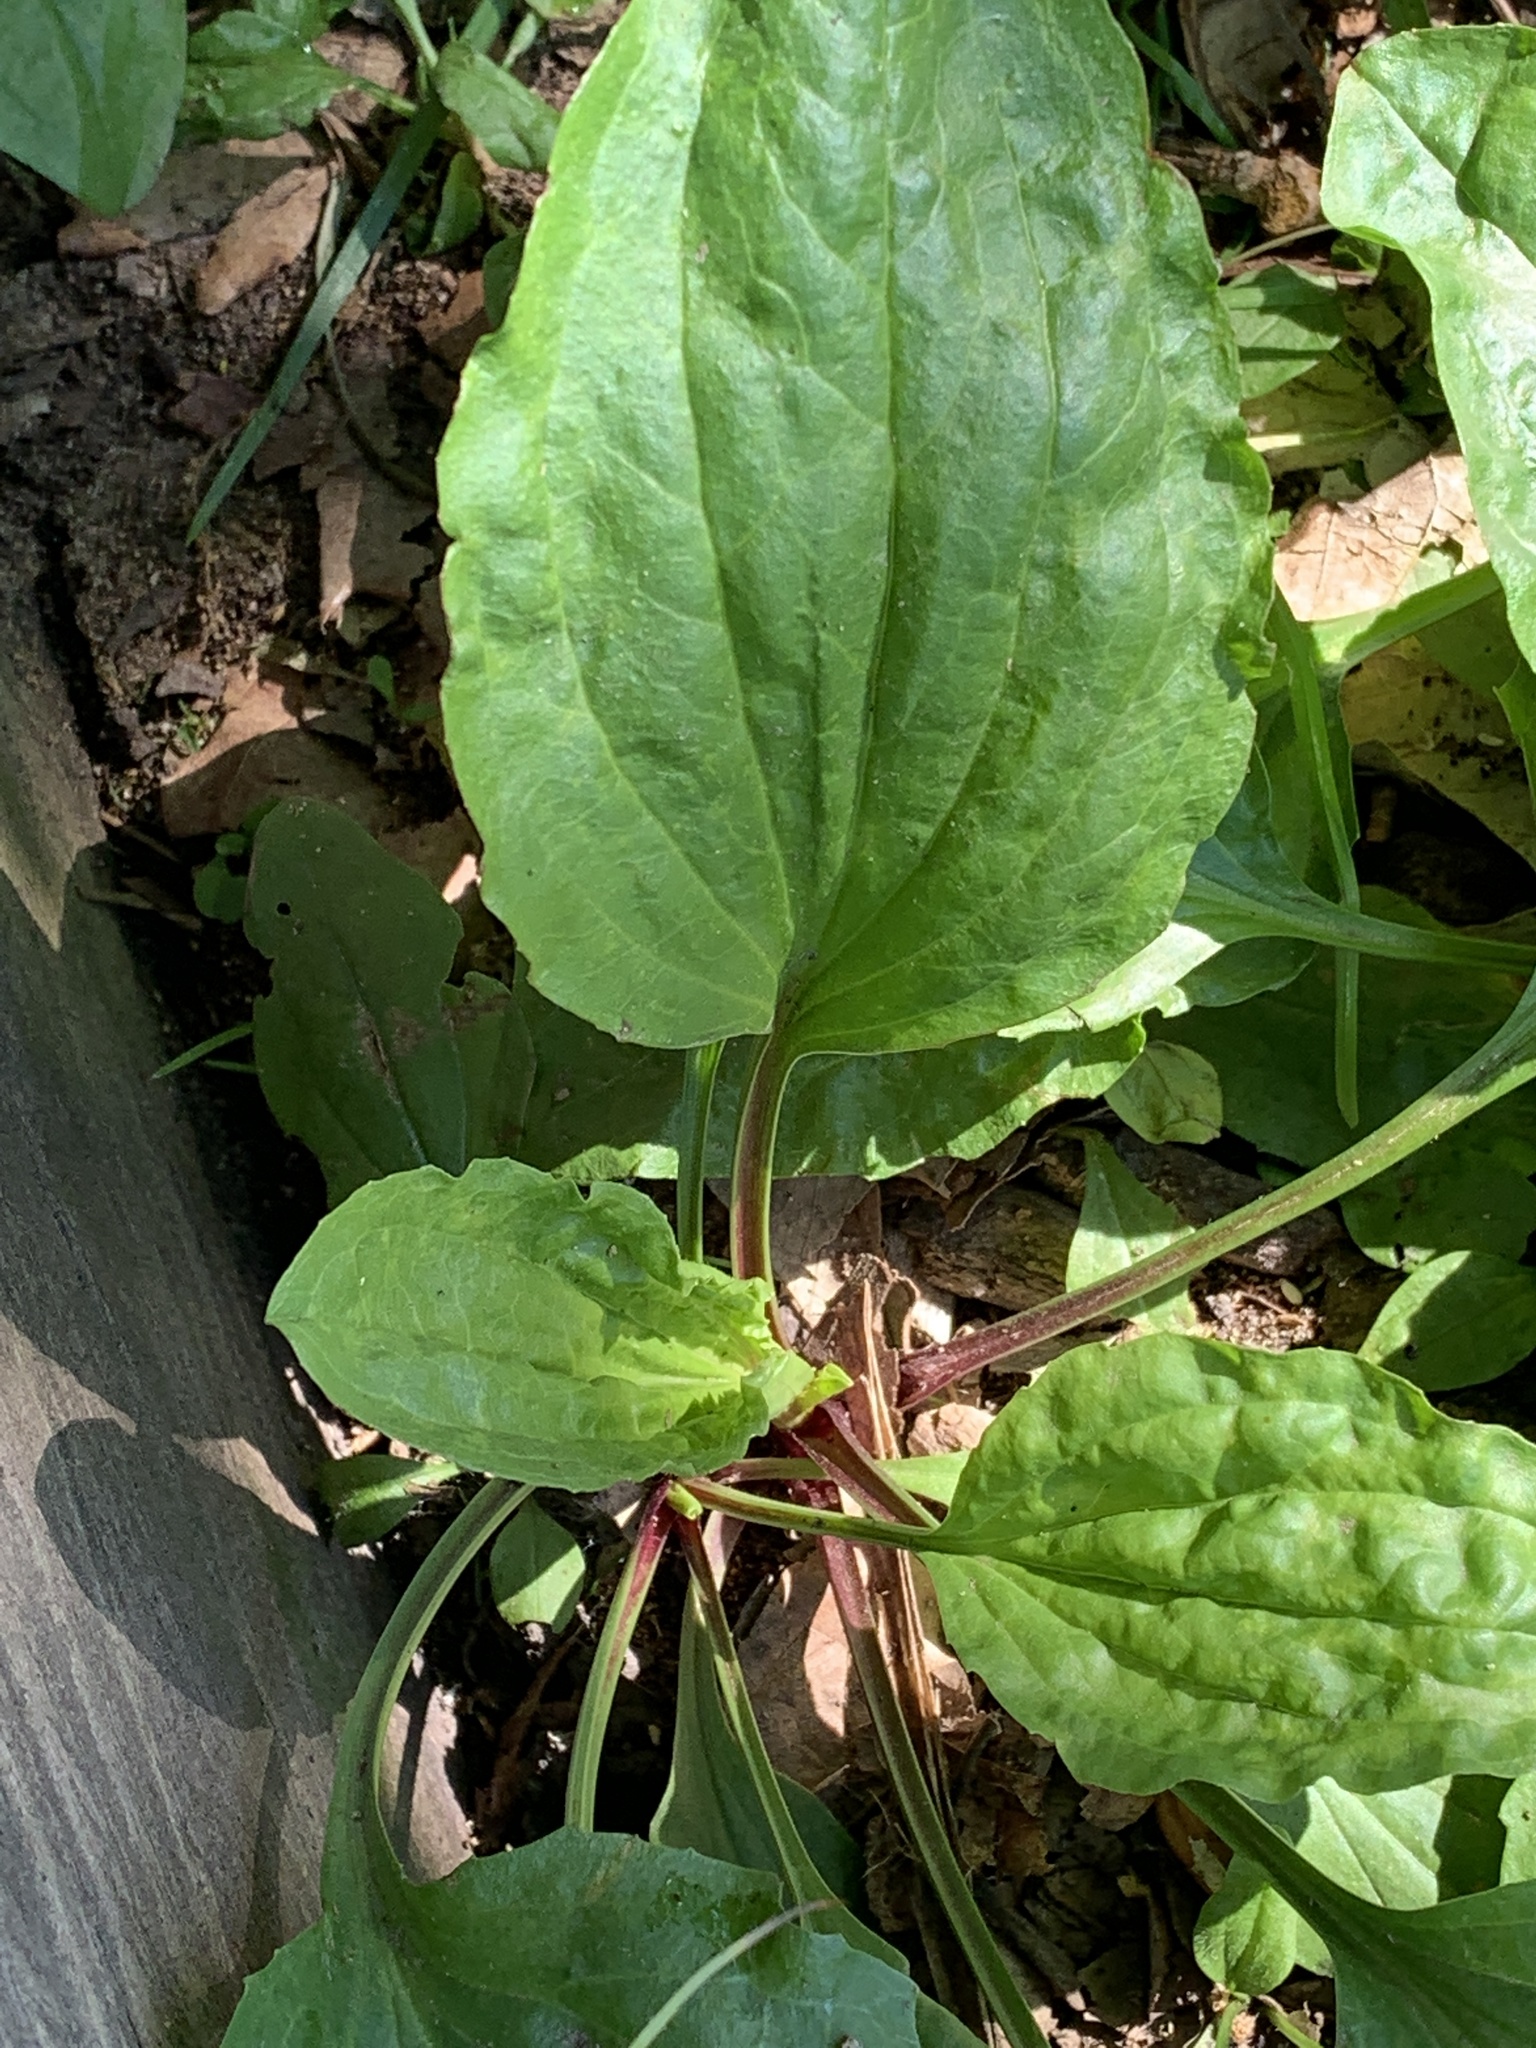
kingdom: Plantae
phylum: Tracheophyta
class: Magnoliopsida
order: Lamiales
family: Plantaginaceae
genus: Plantago
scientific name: Plantago rugelii
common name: American plantain
